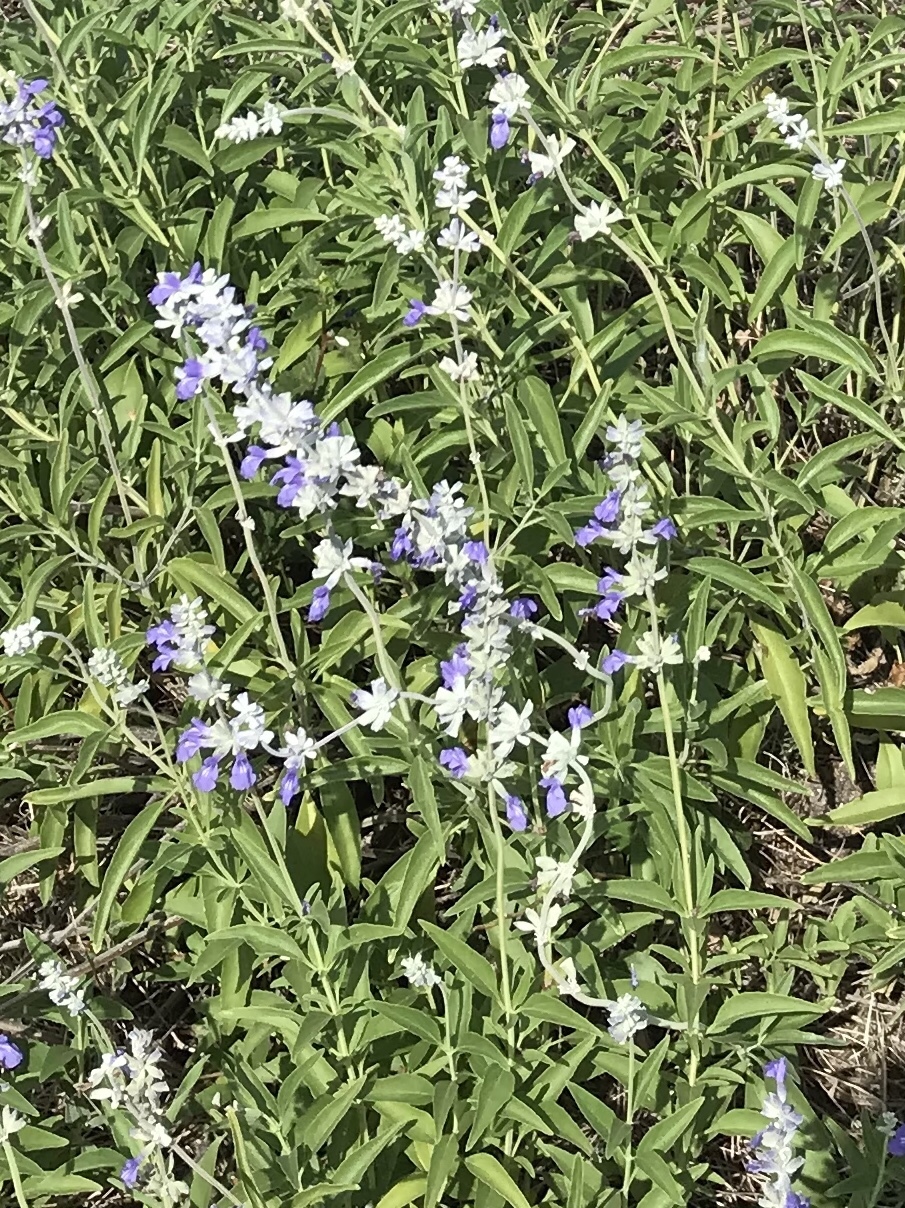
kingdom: Plantae
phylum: Tracheophyta
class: Magnoliopsida
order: Lamiales
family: Lamiaceae
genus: Salvia
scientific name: Salvia farinacea
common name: Mealy sage
